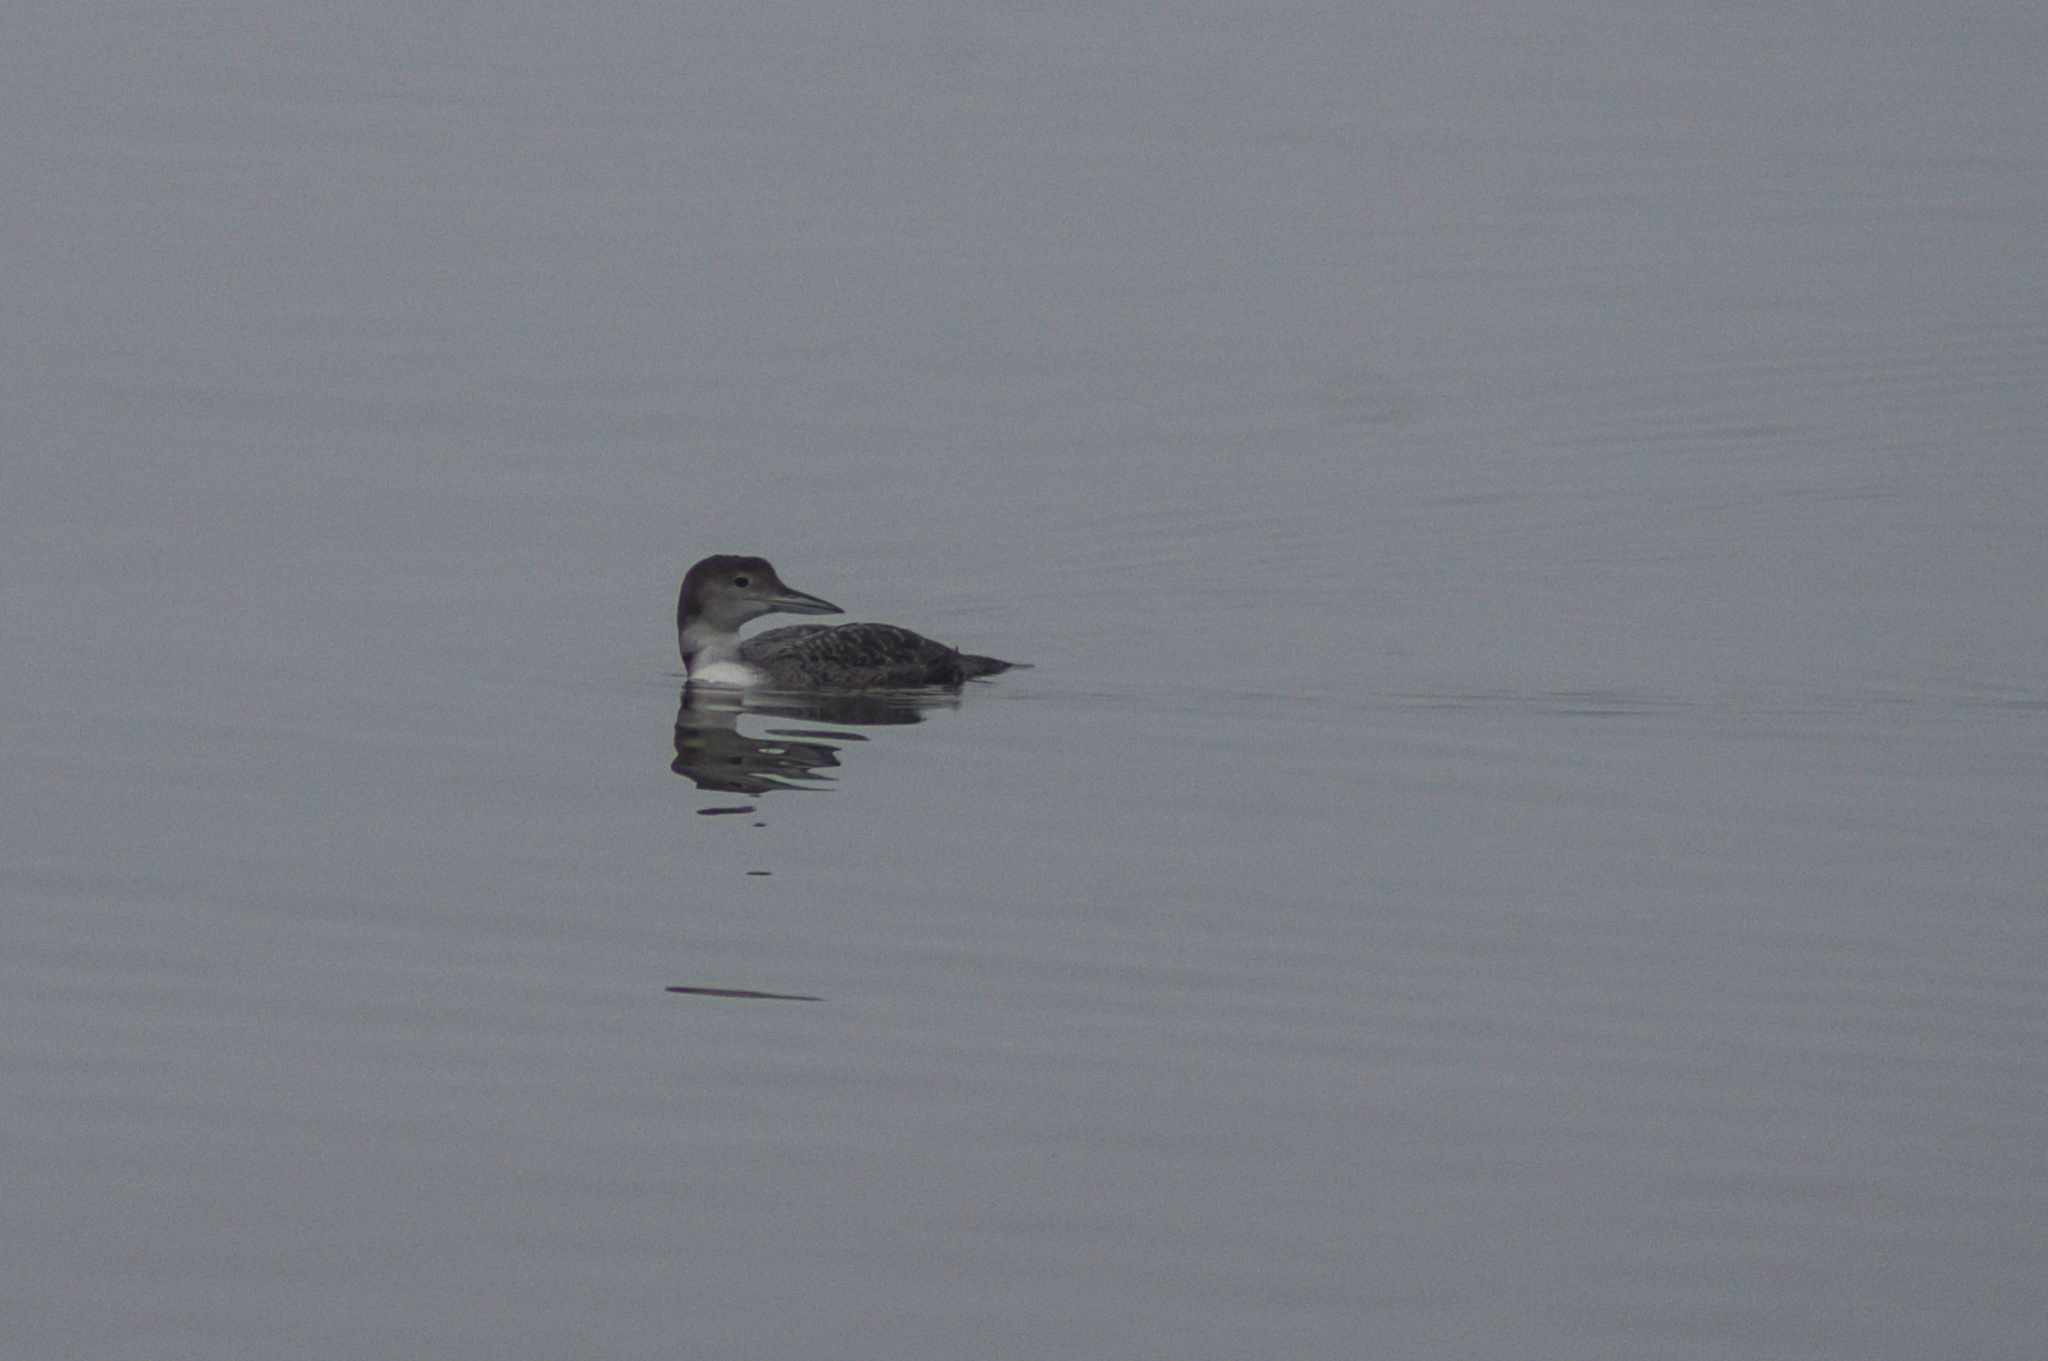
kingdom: Animalia
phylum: Chordata
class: Aves
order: Gaviiformes
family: Gaviidae
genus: Gavia
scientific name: Gavia immer
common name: Common loon
